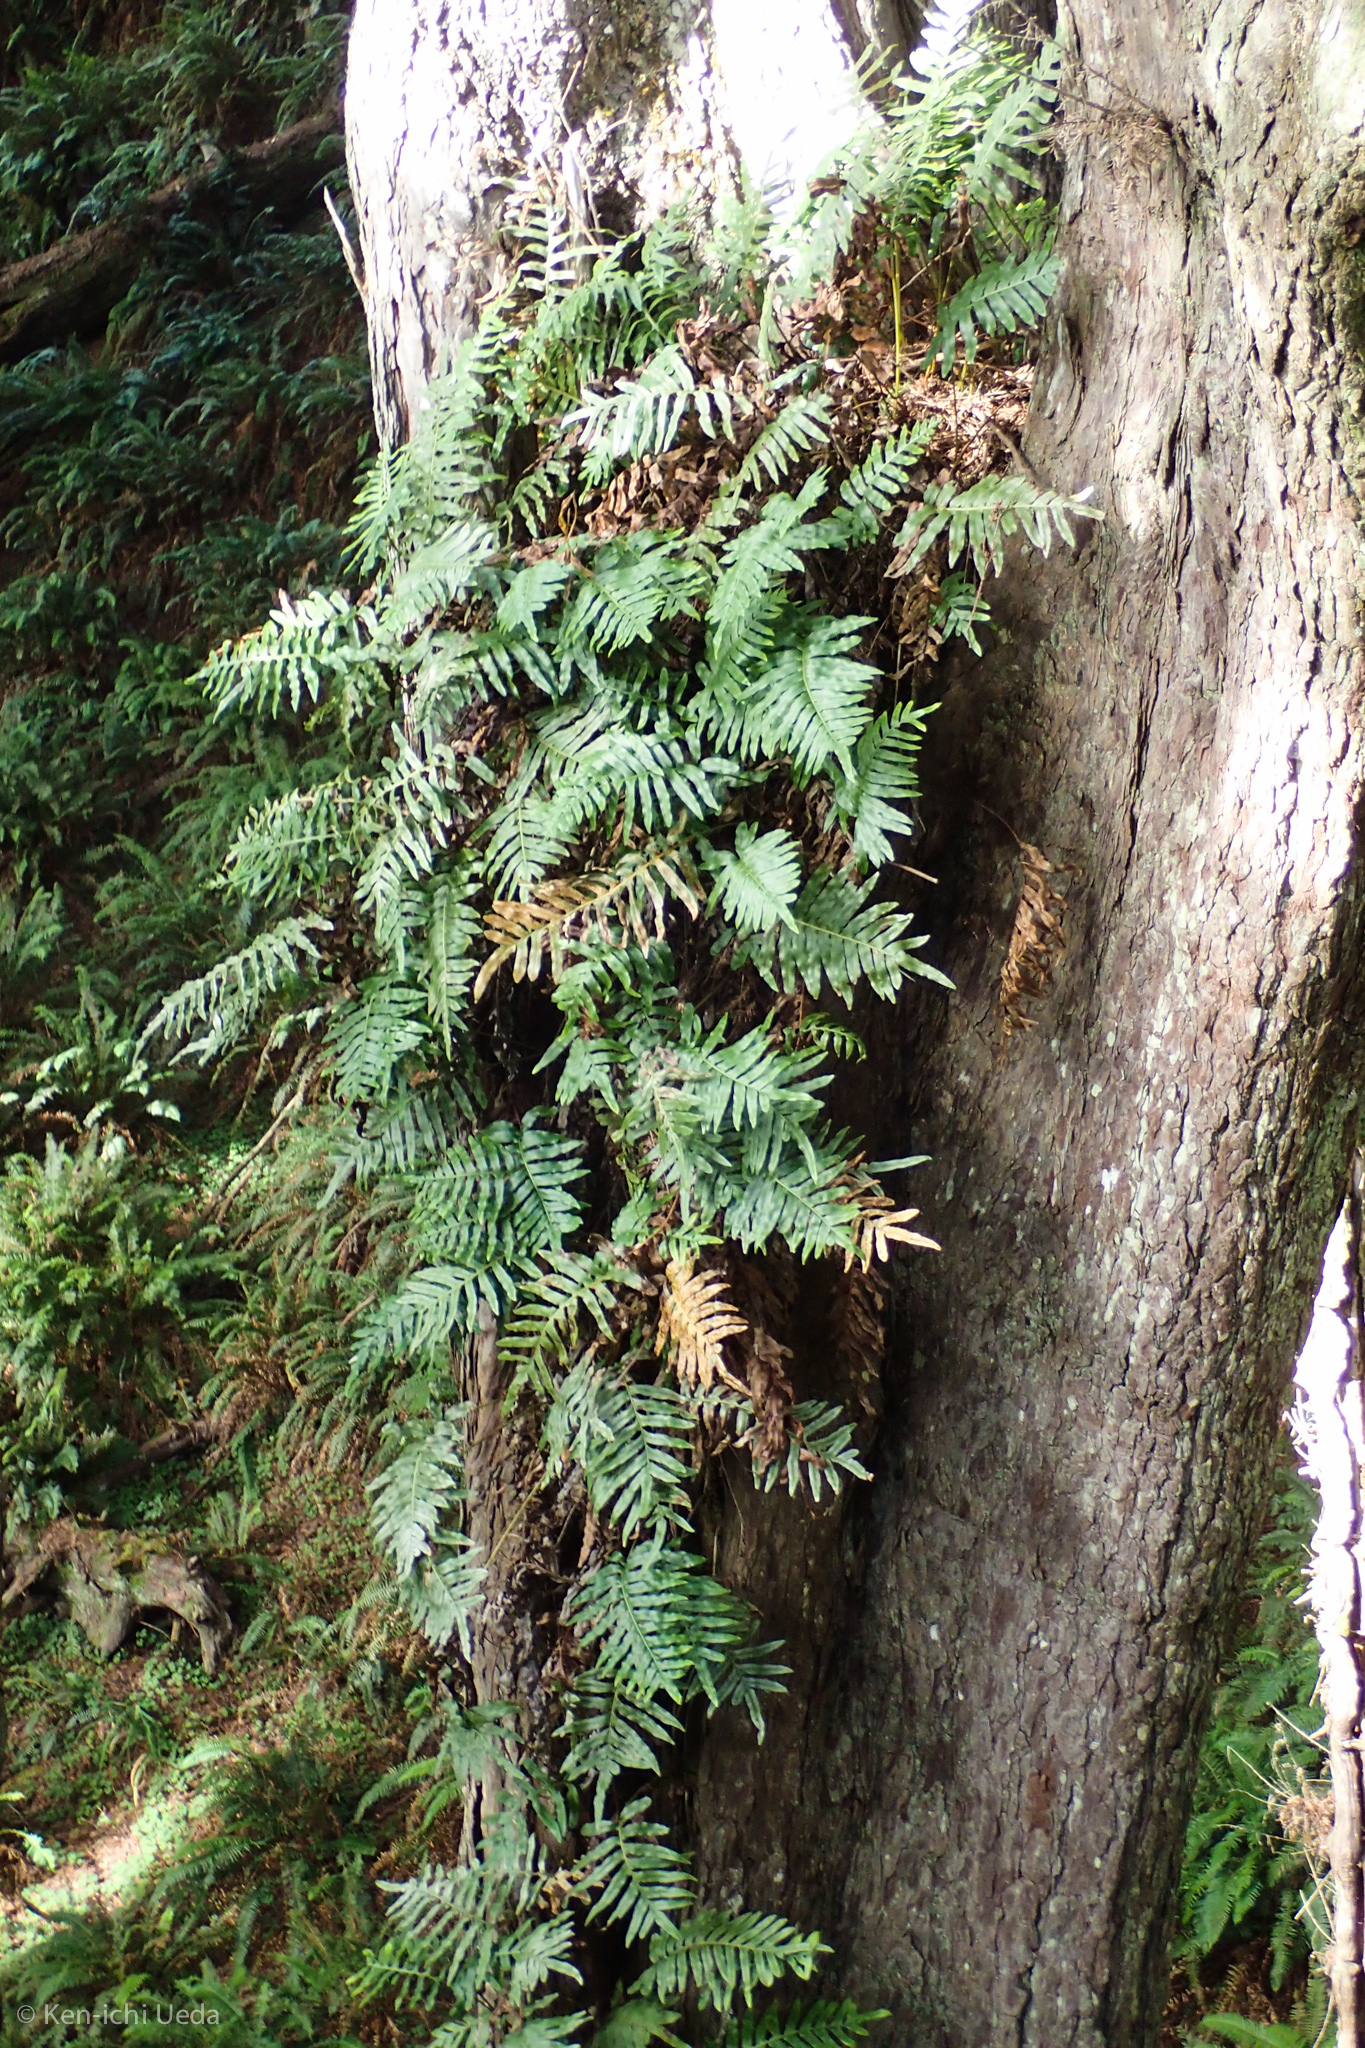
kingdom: Plantae
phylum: Tracheophyta
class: Polypodiopsida
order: Polypodiales
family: Polypodiaceae
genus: Polypodium
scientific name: Polypodium scouleri
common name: Scouler's polypody
